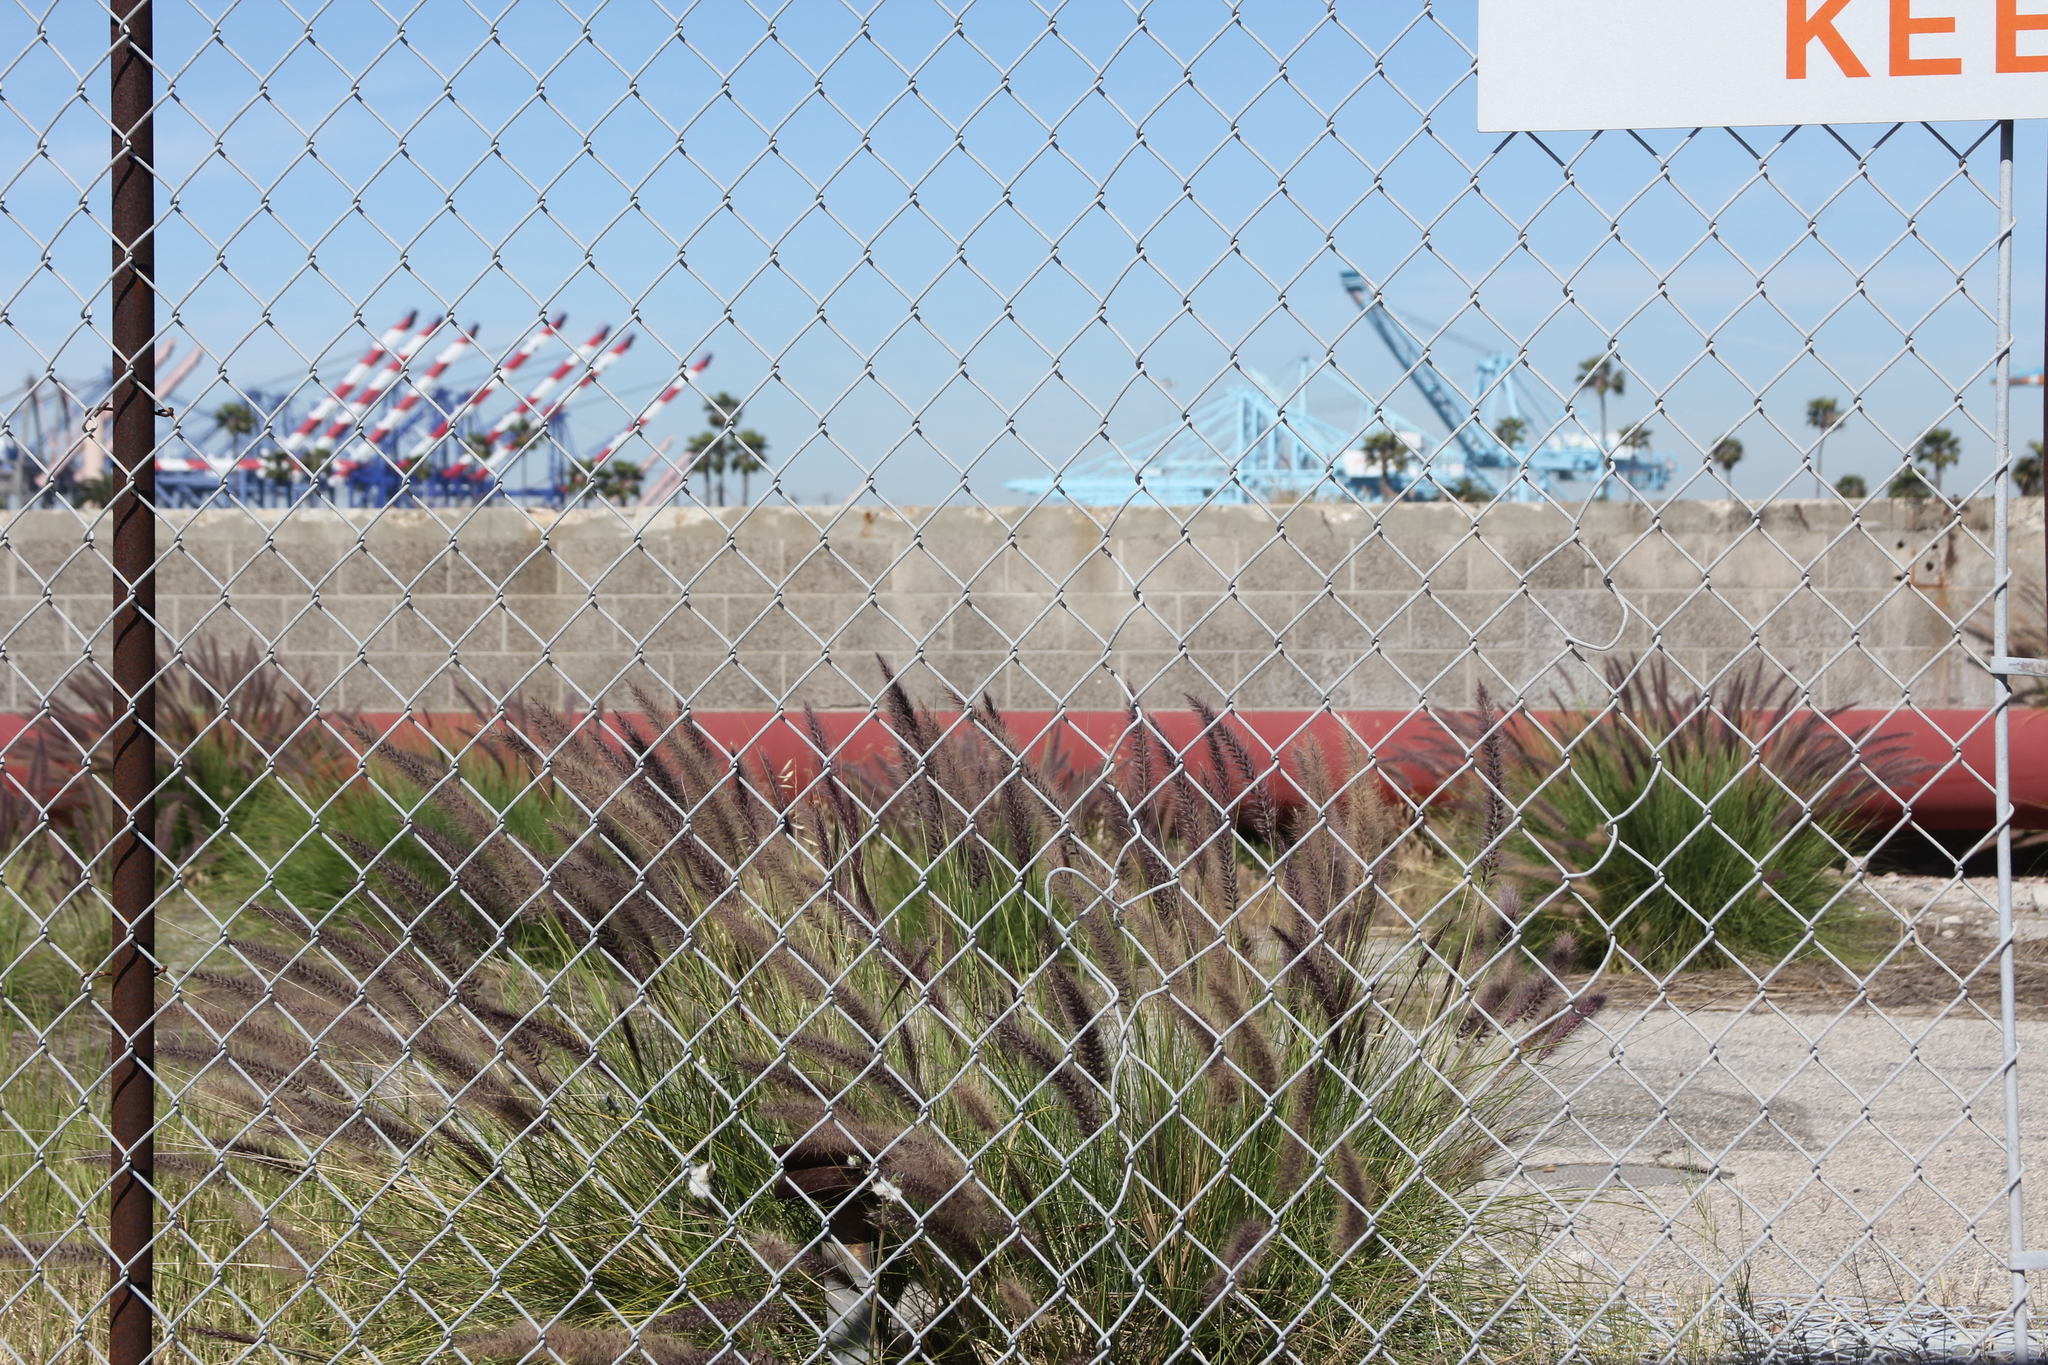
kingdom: Plantae
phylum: Tracheophyta
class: Liliopsida
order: Poales
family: Poaceae
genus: Cenchrus
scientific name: Cenchrus setaceus
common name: Crimson fountaingrass
